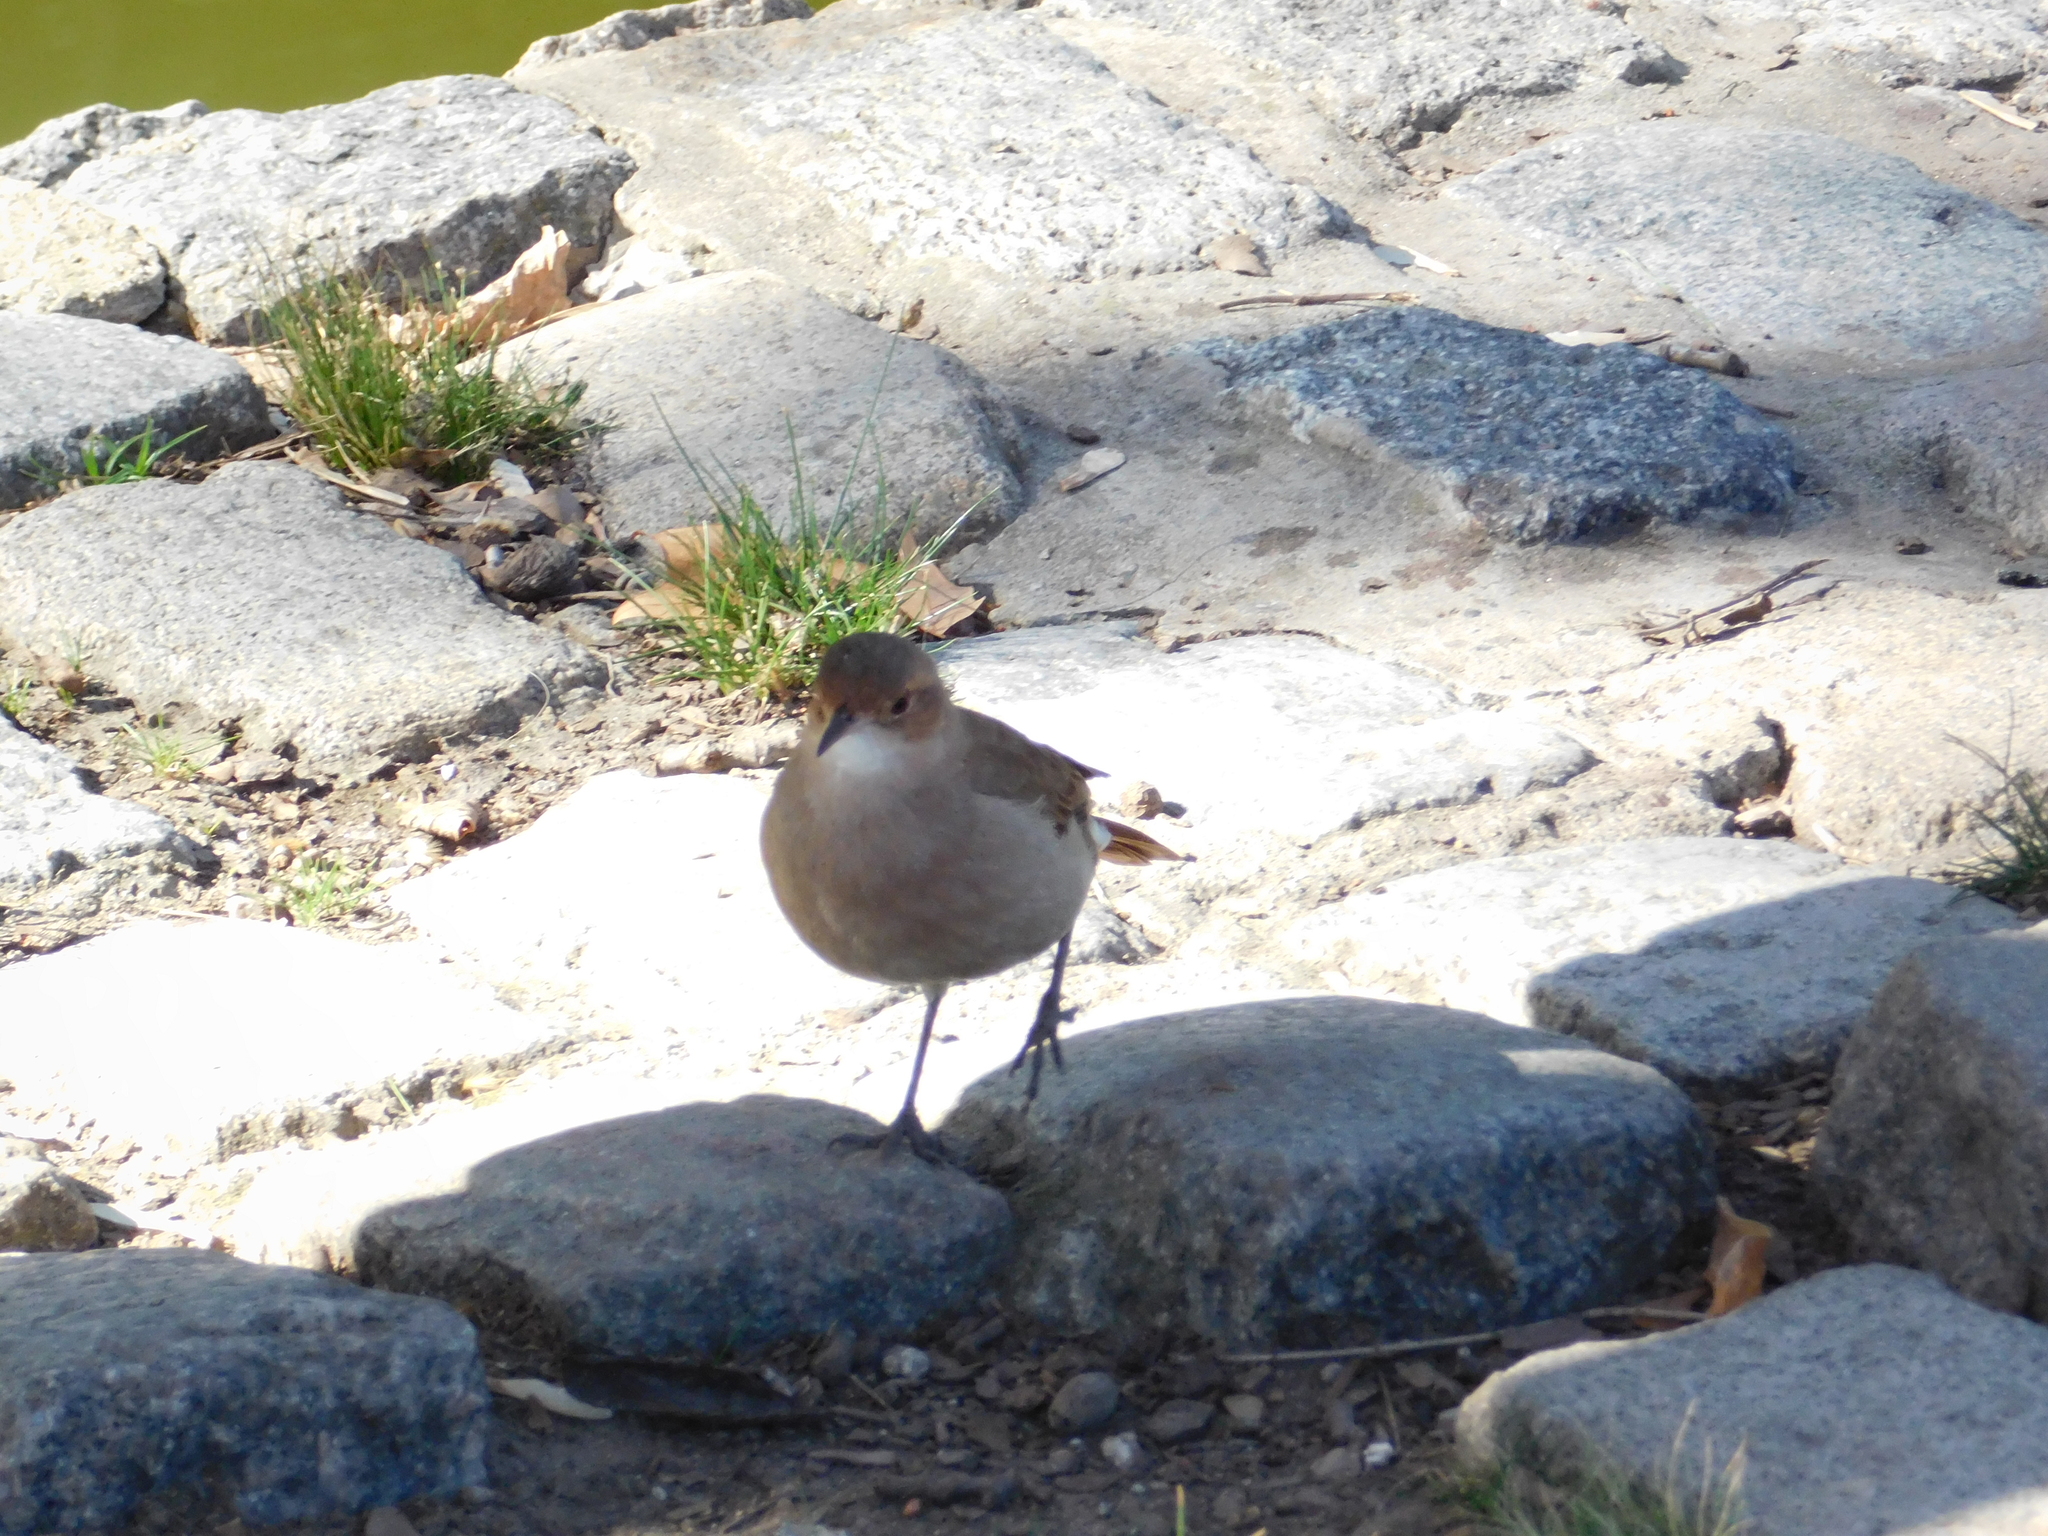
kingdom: Animalia
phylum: Chordata
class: Aves
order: Passeriformes
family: Furnariidae
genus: Furnarius
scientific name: Furnarius rufus
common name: Rufous hornero
